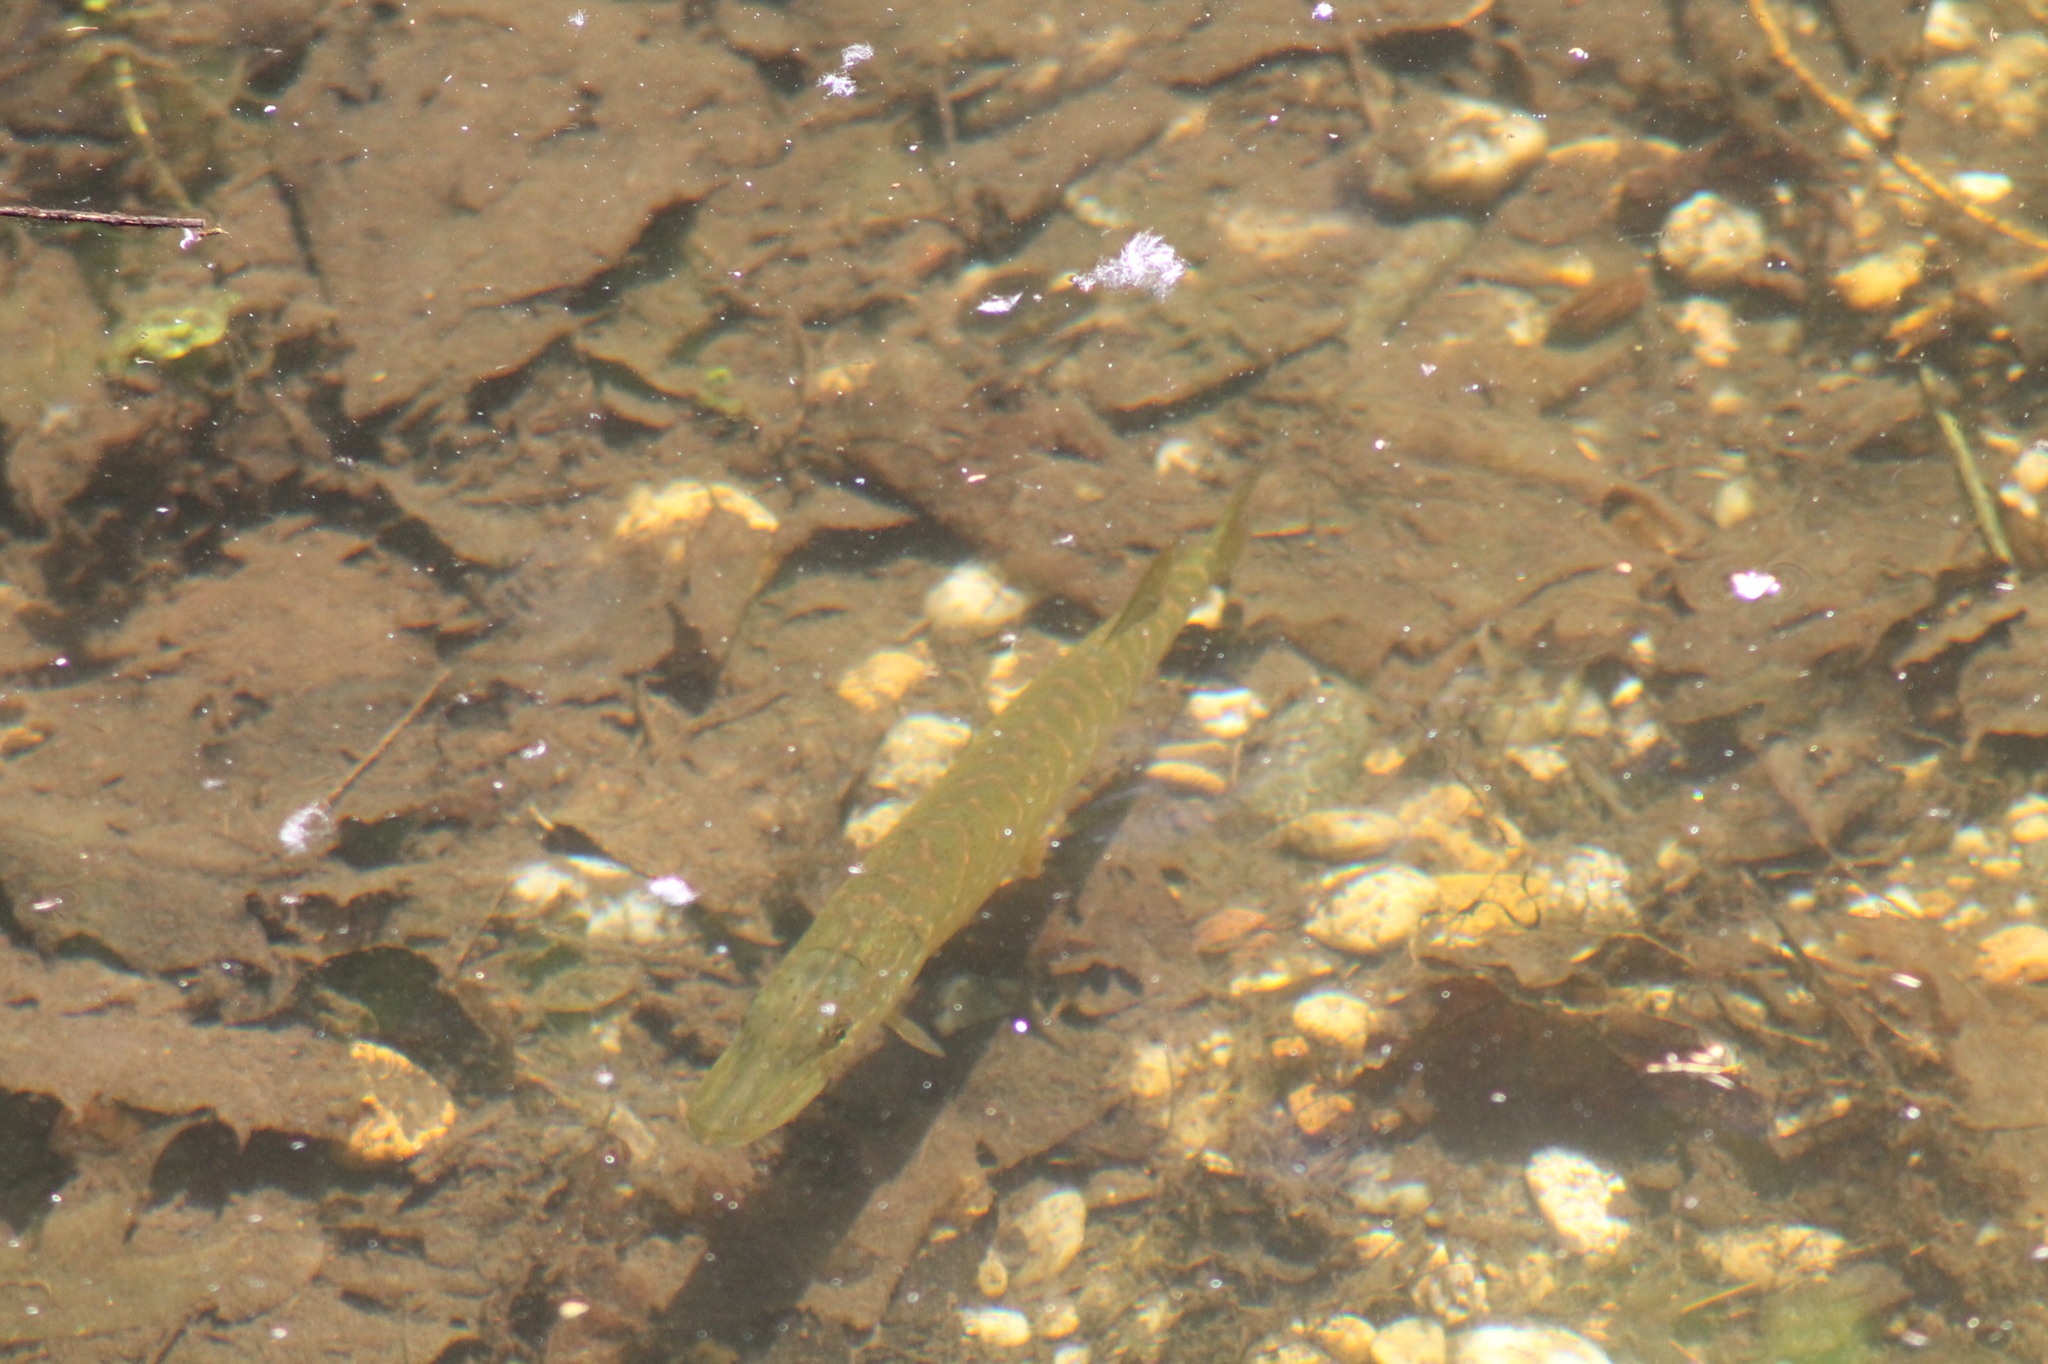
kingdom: Animalia
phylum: Chordata
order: Esociformes
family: Esocidae
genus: Esox
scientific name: Esox lucius
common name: Northern pike
